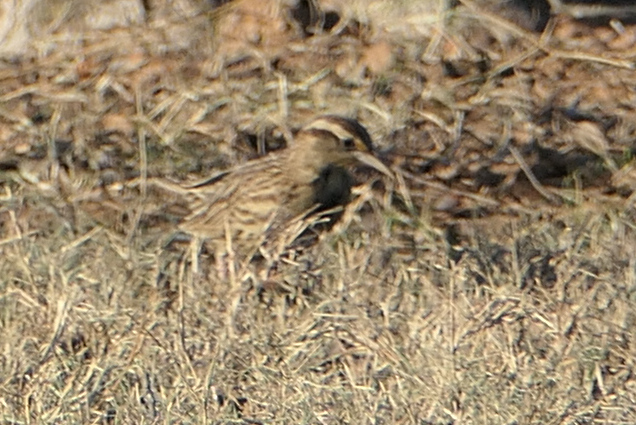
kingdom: Animalia
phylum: Chordata
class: Aves
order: Passeriformes
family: Icteridae
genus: Sturnella
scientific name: Sturnella neglecta
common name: Western meadowlark
